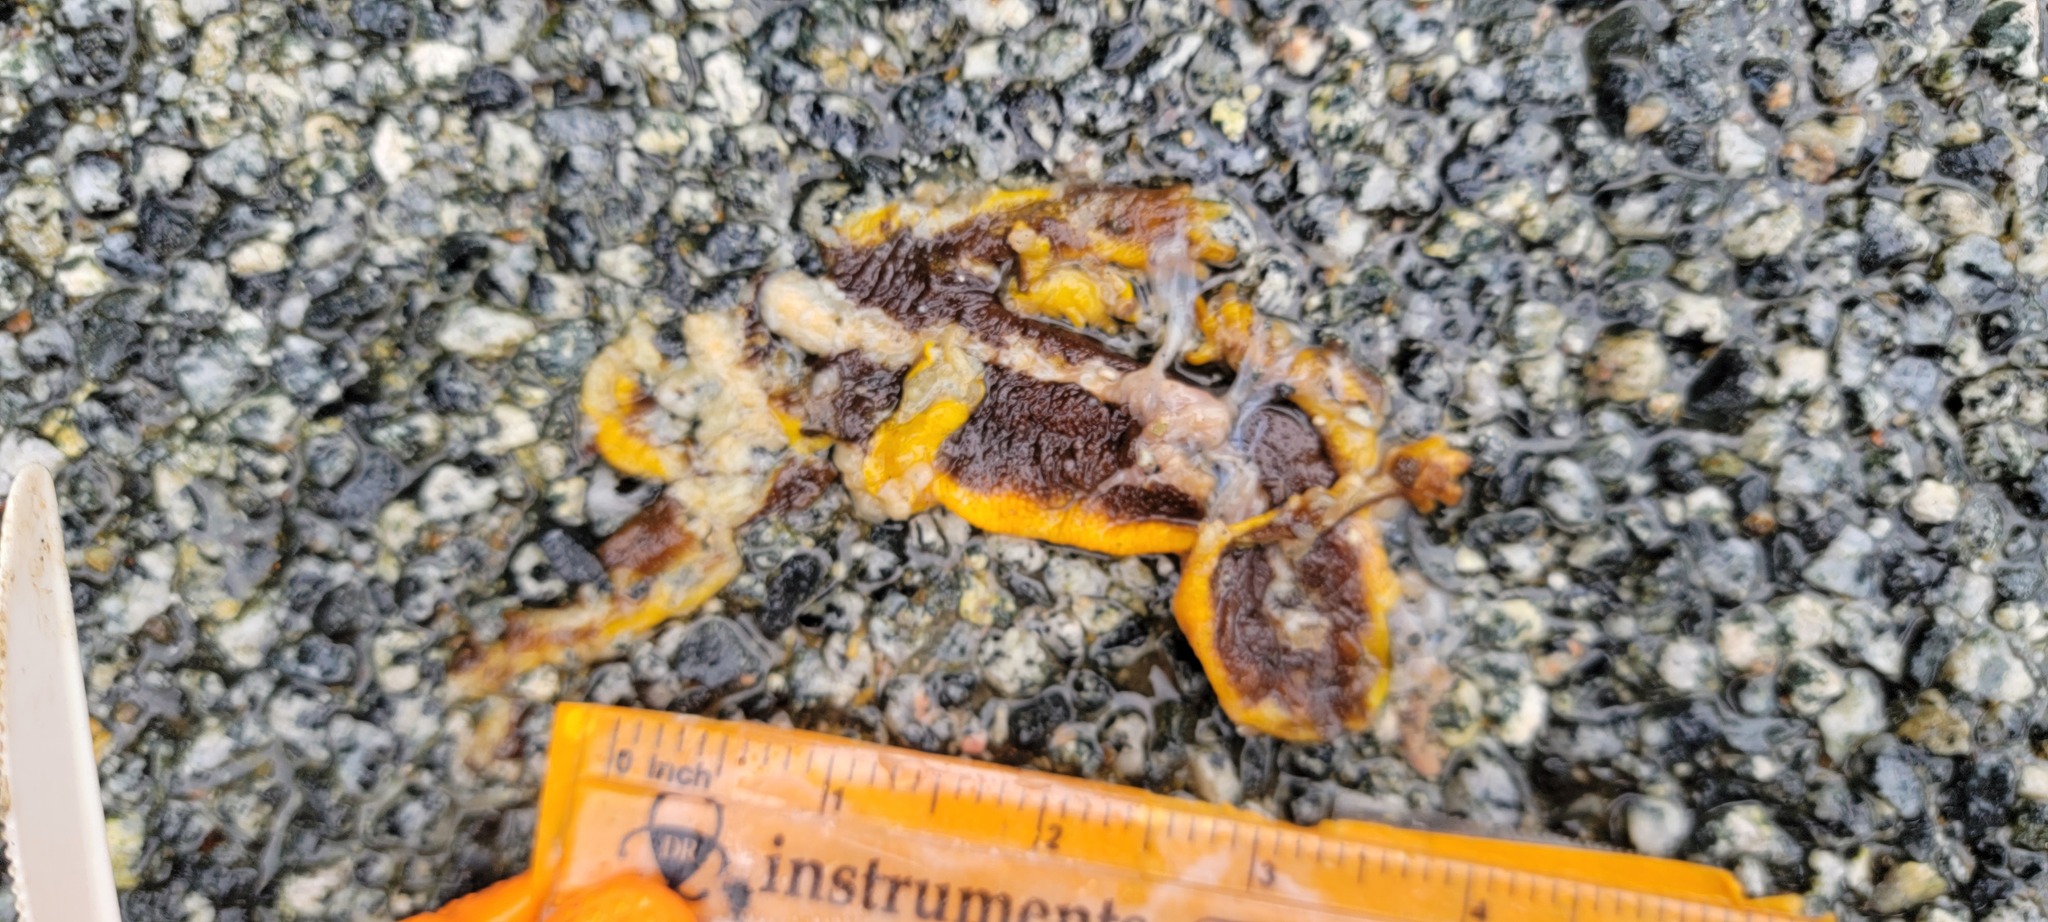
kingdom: Animalia
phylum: Chordata
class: Amphibia
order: Caudata
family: Salamandridae
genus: Taricha
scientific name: Taricha
